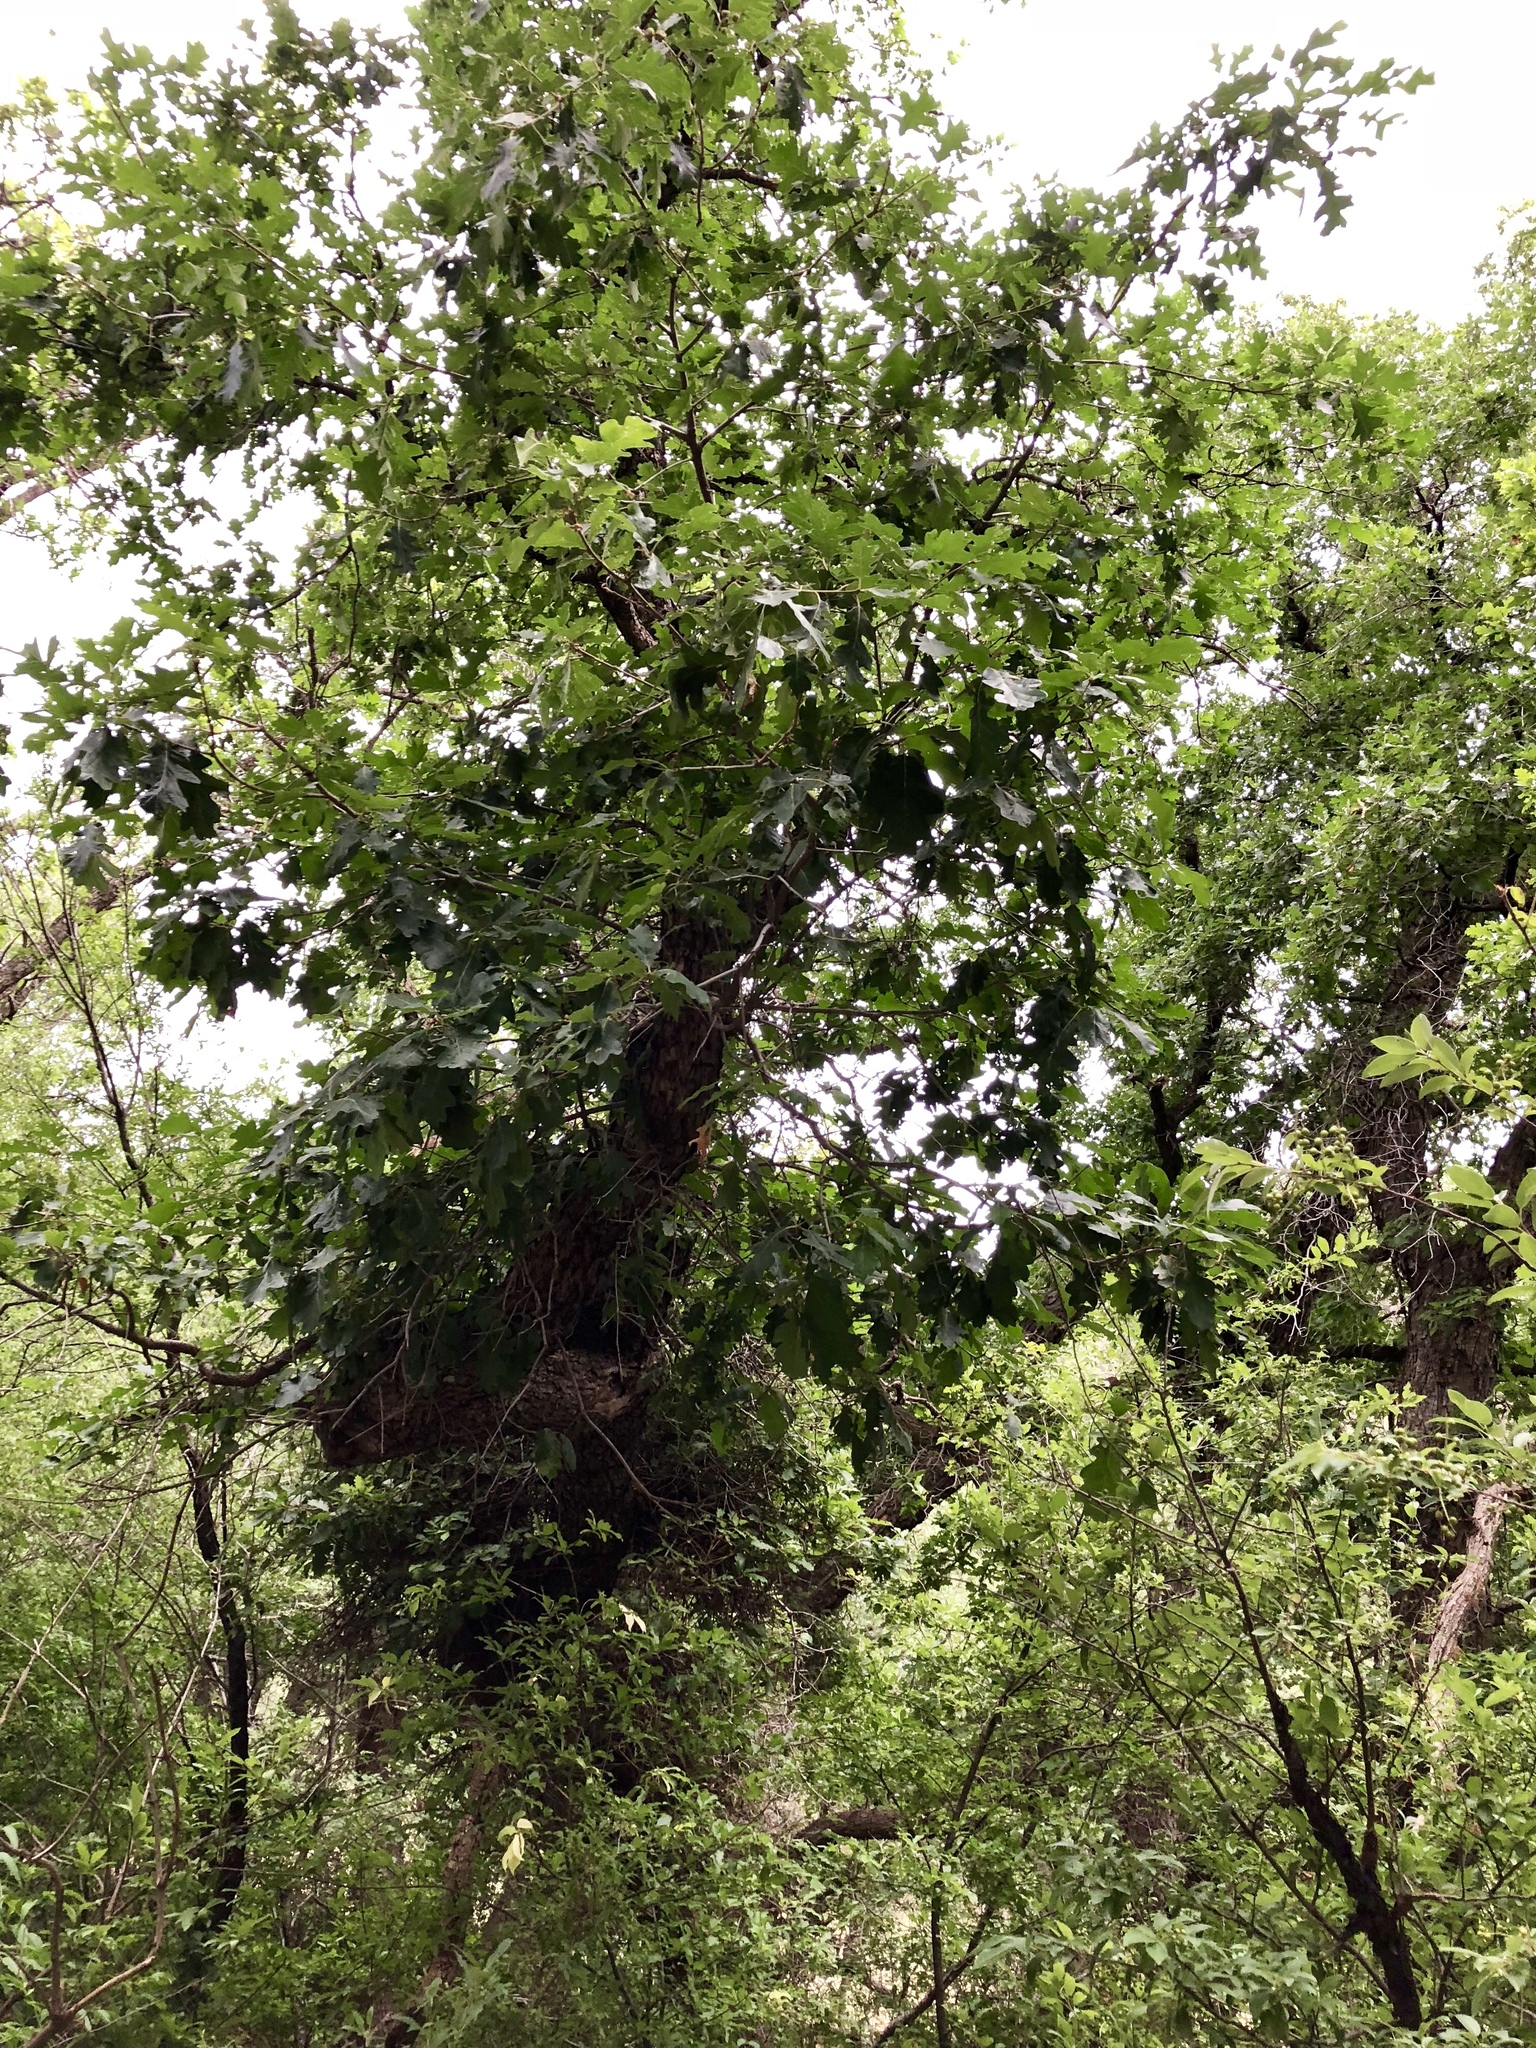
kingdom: Plantae
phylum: Tracheophyta
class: Magnoliopsida
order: Fagales
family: Fagaceae
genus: Quercus
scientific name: Quercus gambelii
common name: Gambel oak
